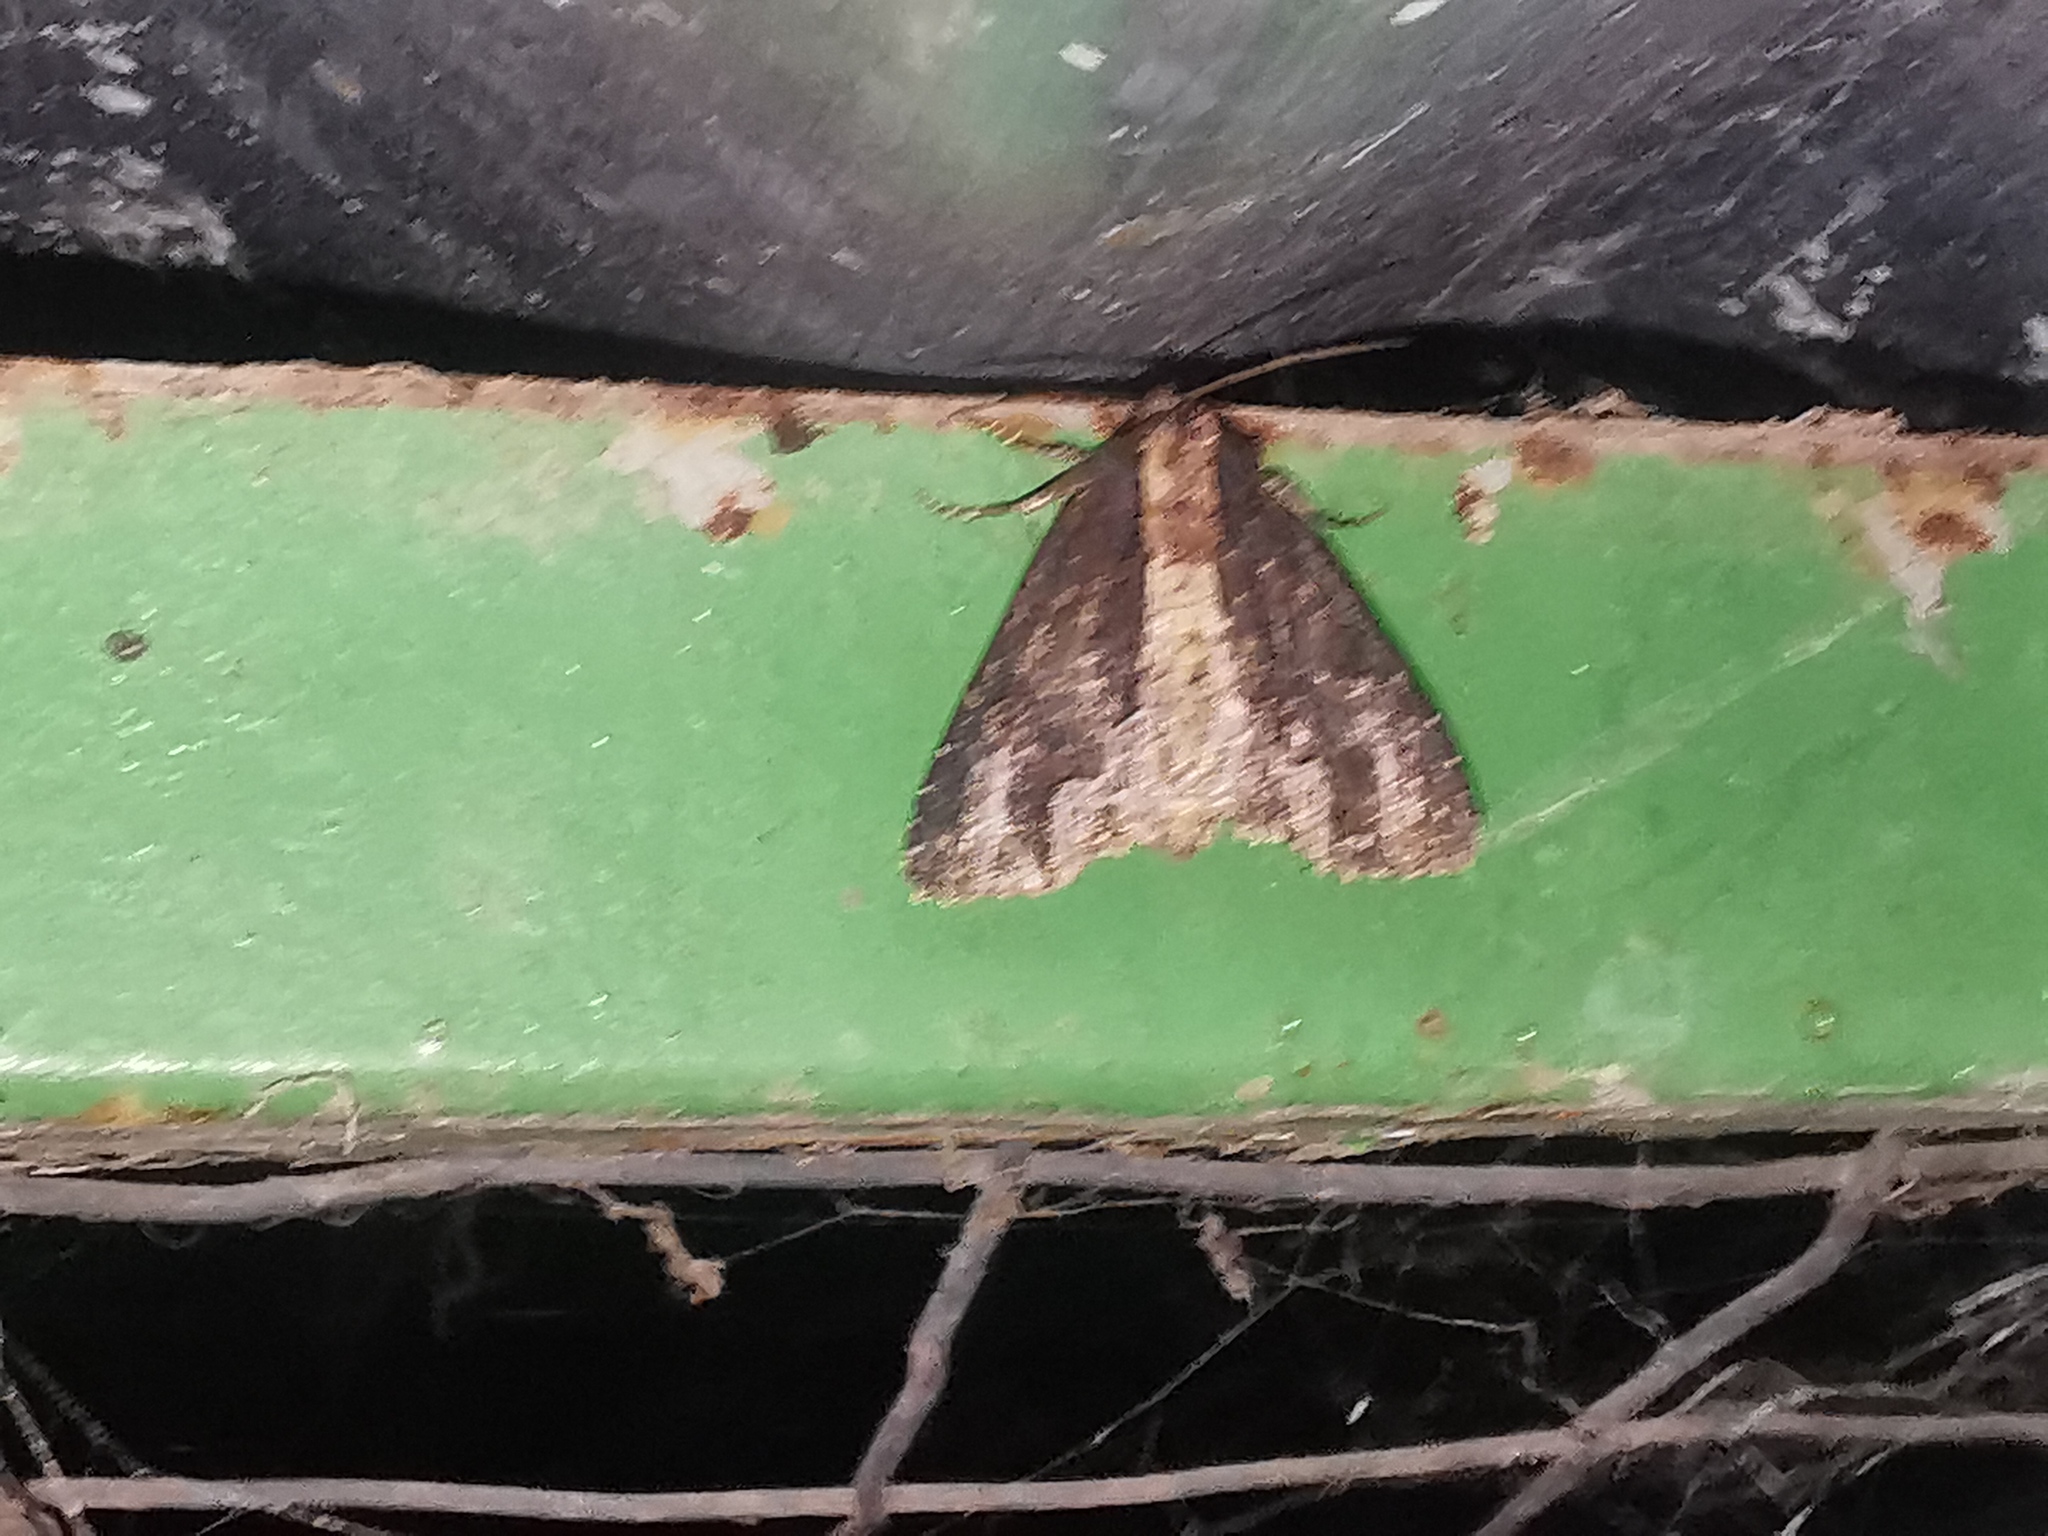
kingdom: Animalia
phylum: Arthropoda
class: Insecta
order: Lepidoptera
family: Noctuidae
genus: Dypterygia
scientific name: Dypterygia scabriuscula
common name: Bird's wing
